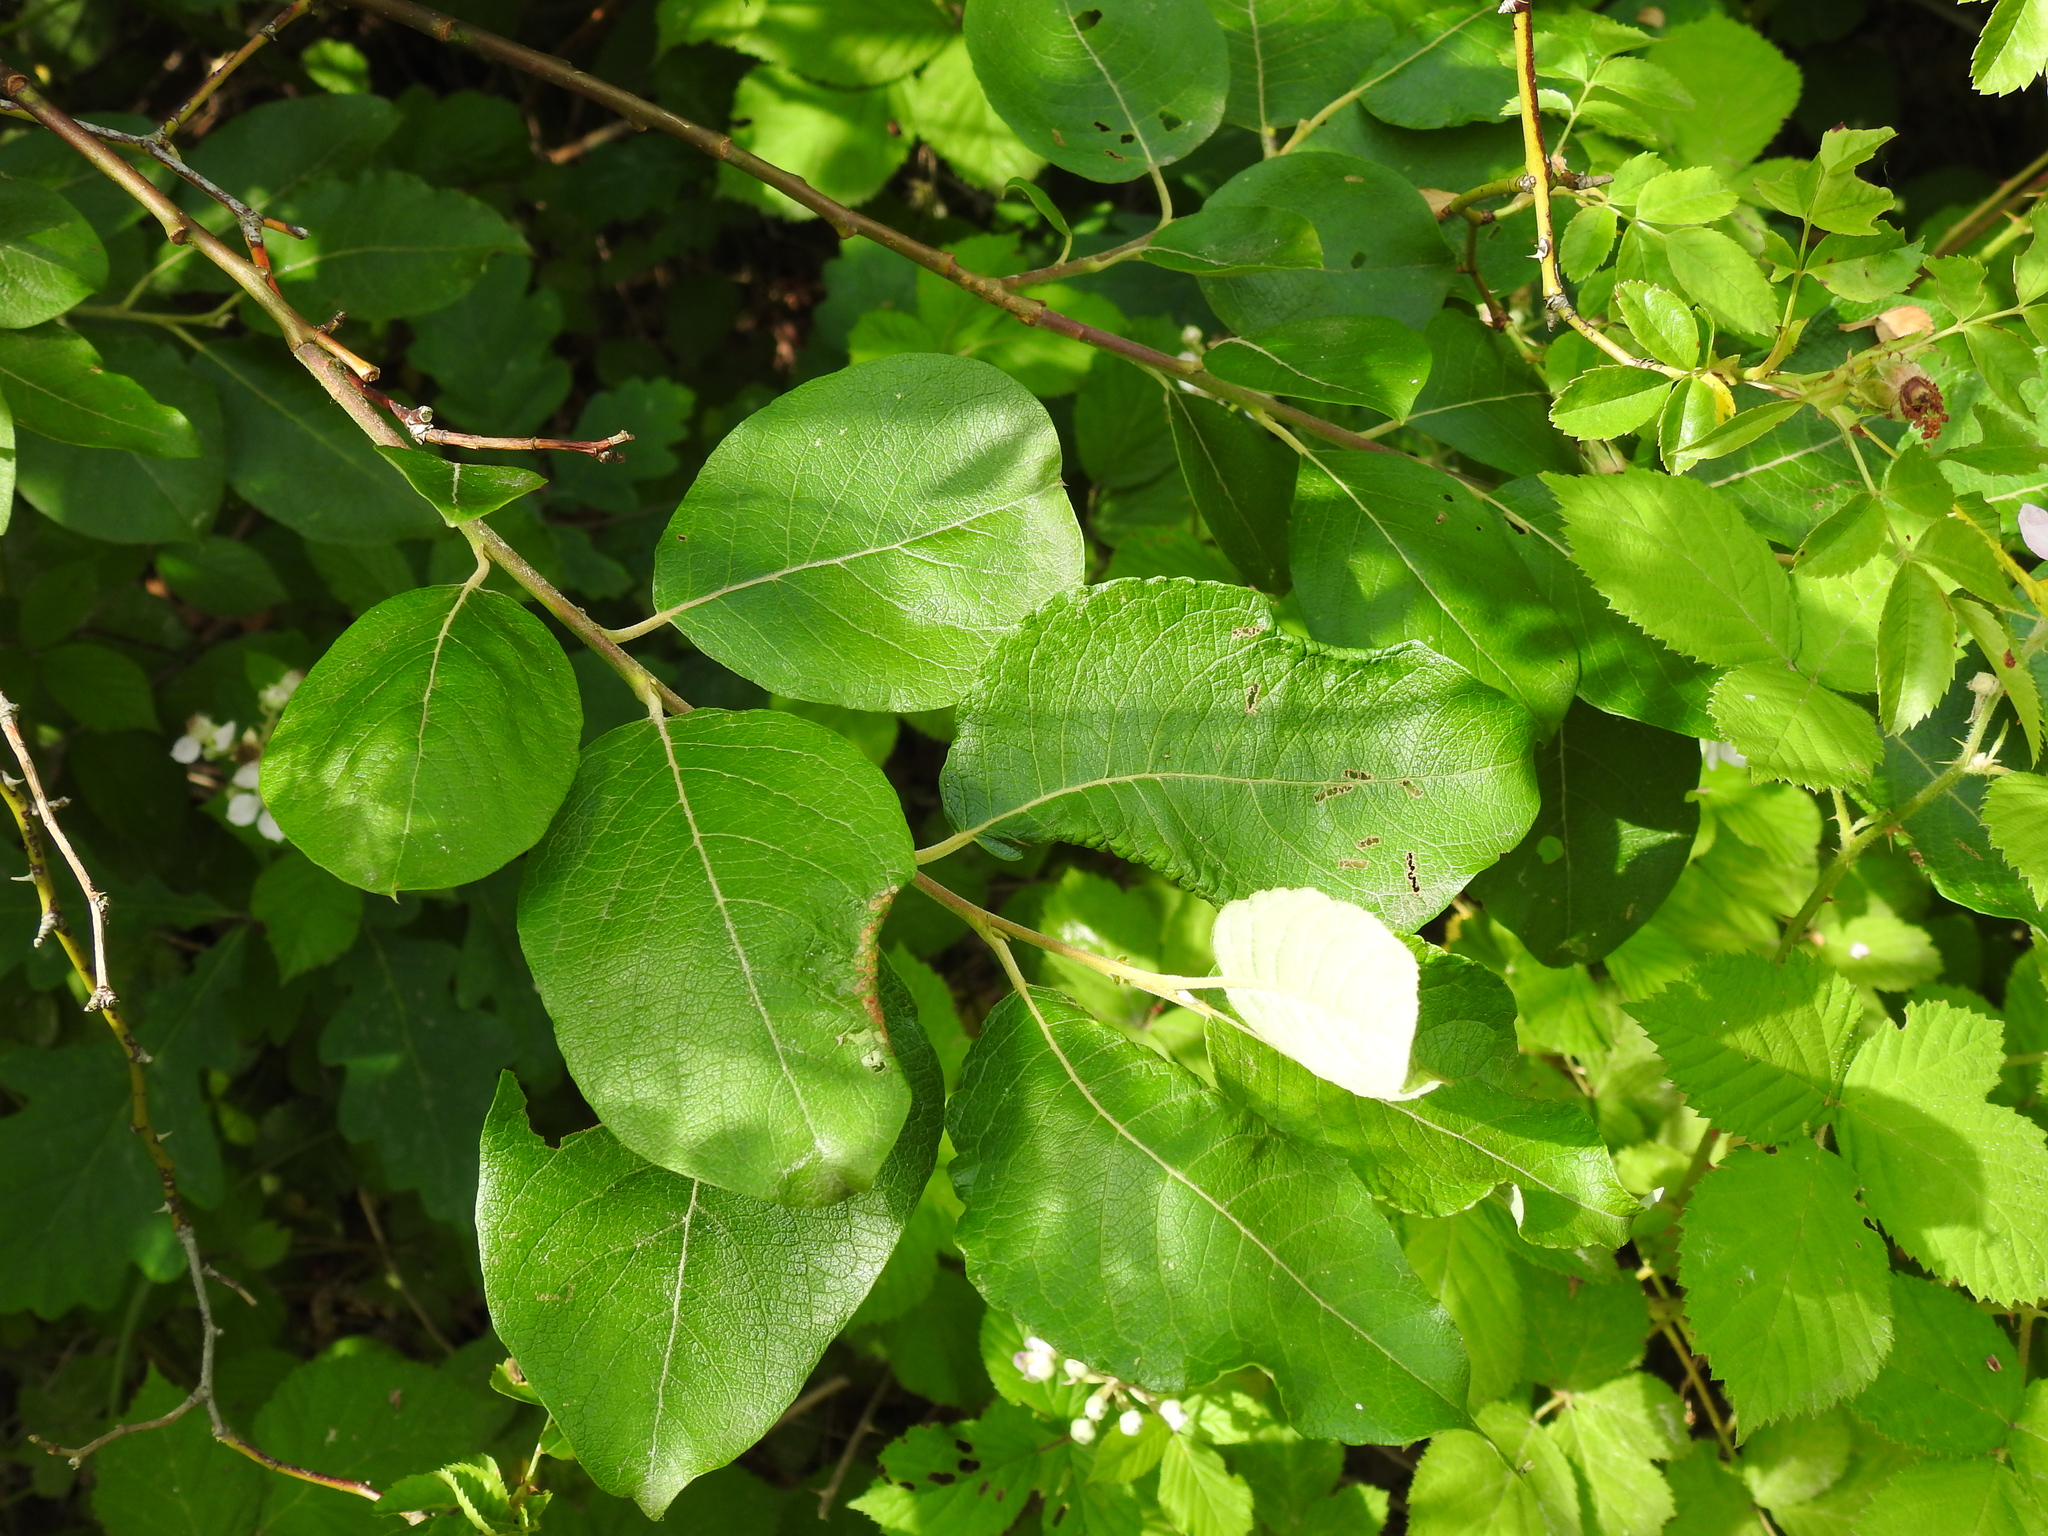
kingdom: Plantae
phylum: Tracheophyta
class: Magnoliopsida
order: Malpighiales
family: Salicaceae
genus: Salix
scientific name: Salix caprea
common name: Goat willow
